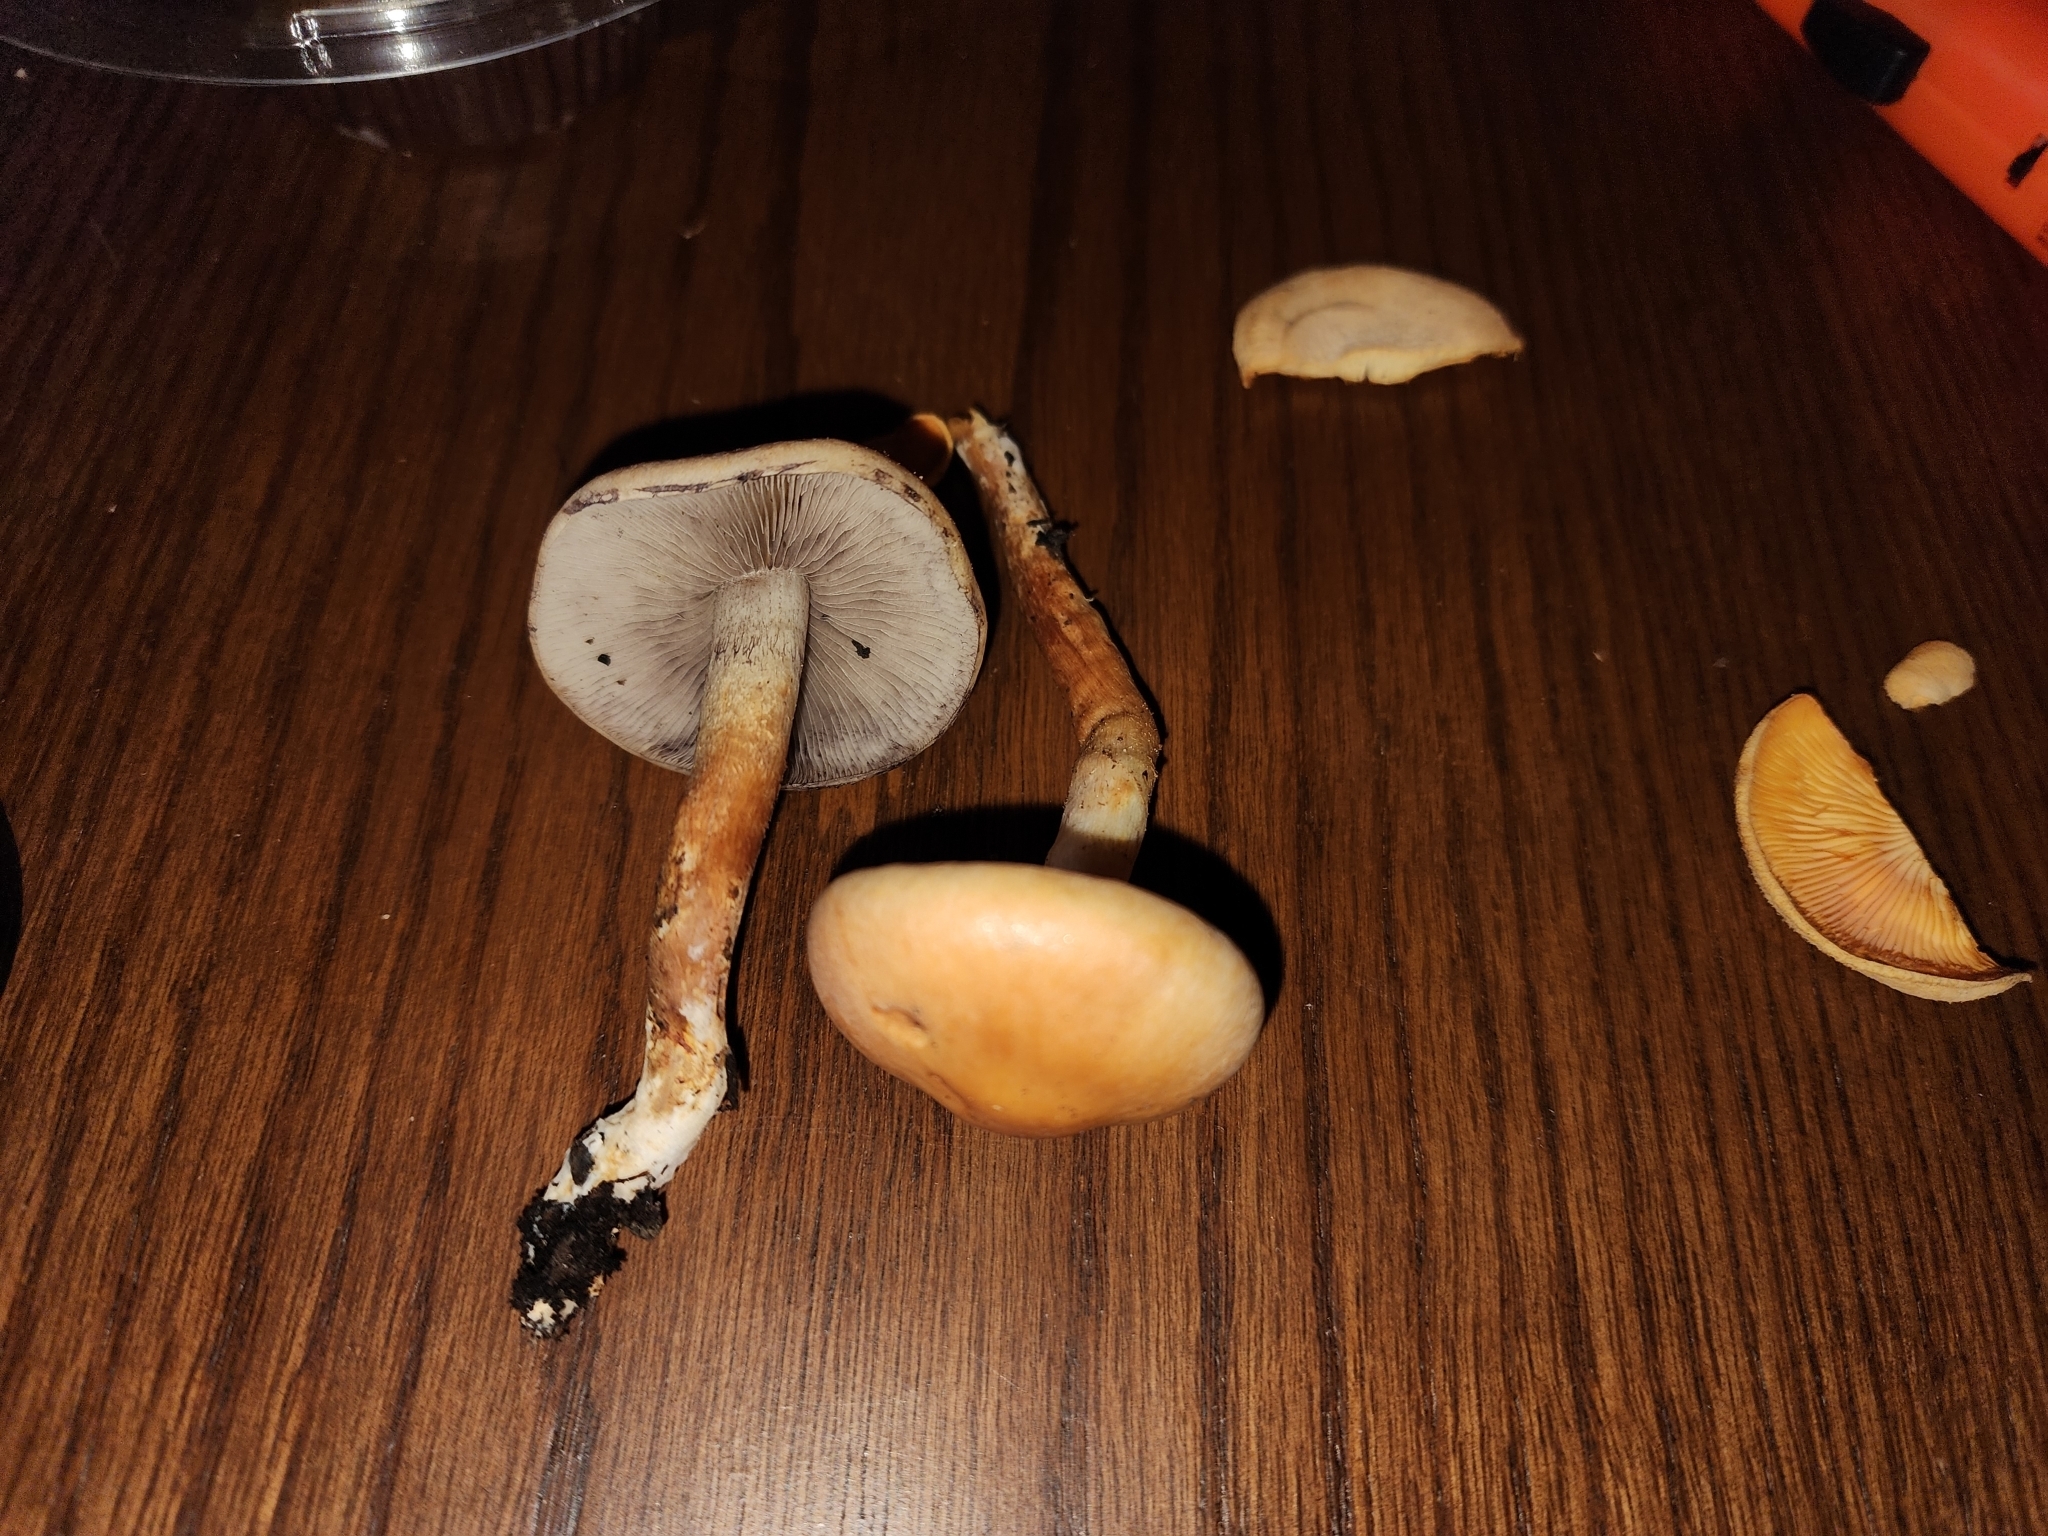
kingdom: Fungi
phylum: Basidiomycota
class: Agaricomycetes
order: Agaricales
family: Strophariaceae
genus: Hypholoma
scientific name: Hypholoma capnoides
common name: Conifer tuft
